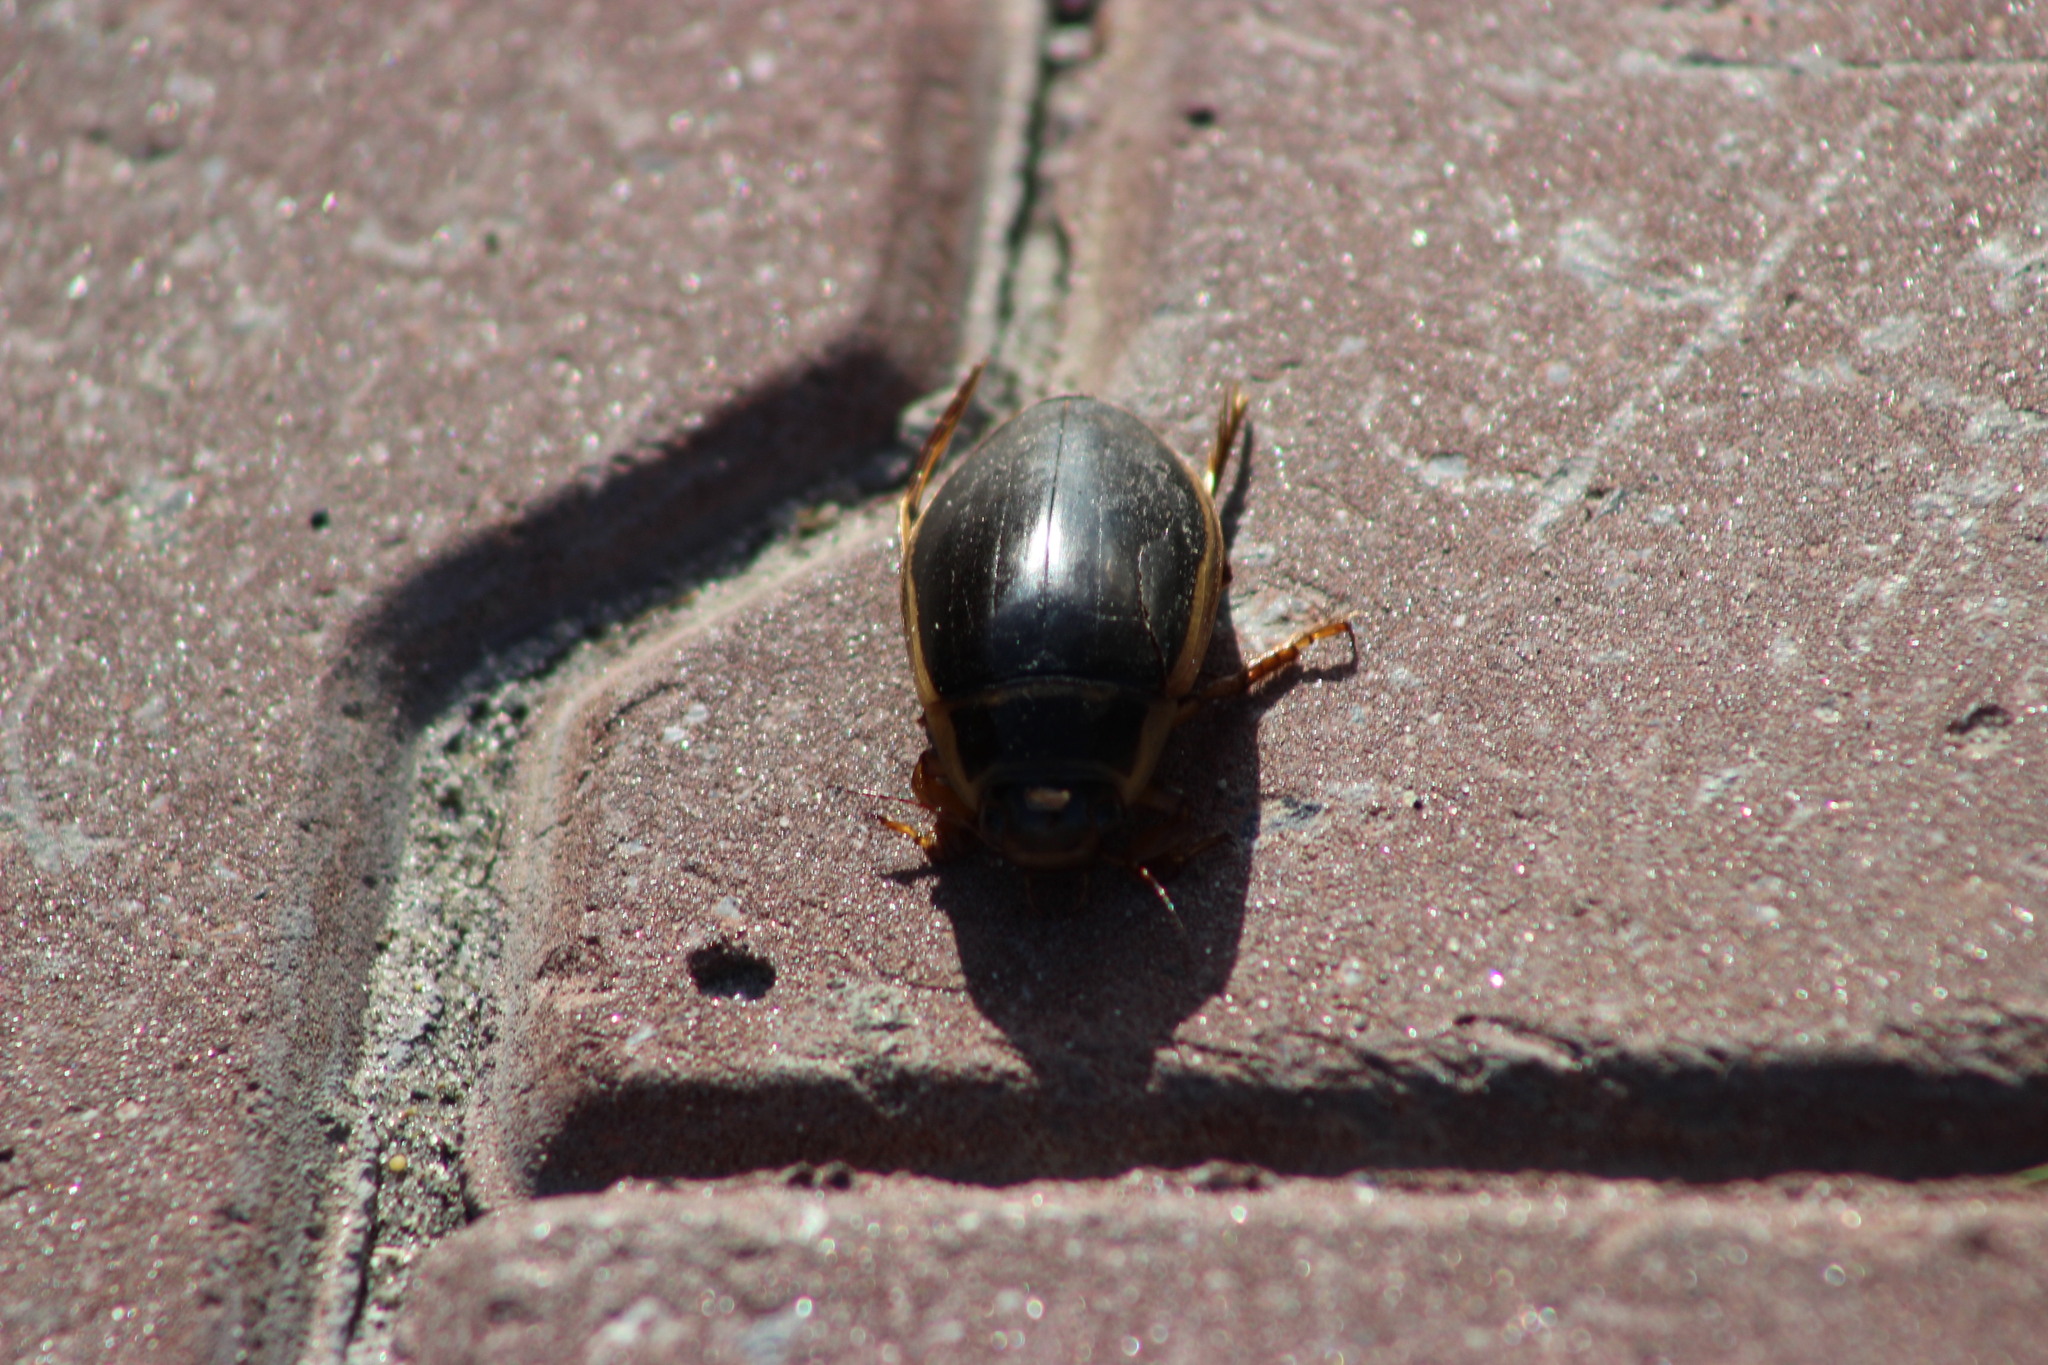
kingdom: Animalia
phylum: Arthropoda
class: Insecta
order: Coleoptera
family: Dytiscidae
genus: Dytiscus
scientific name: Dytiscus marginalis
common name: Great water beetle
